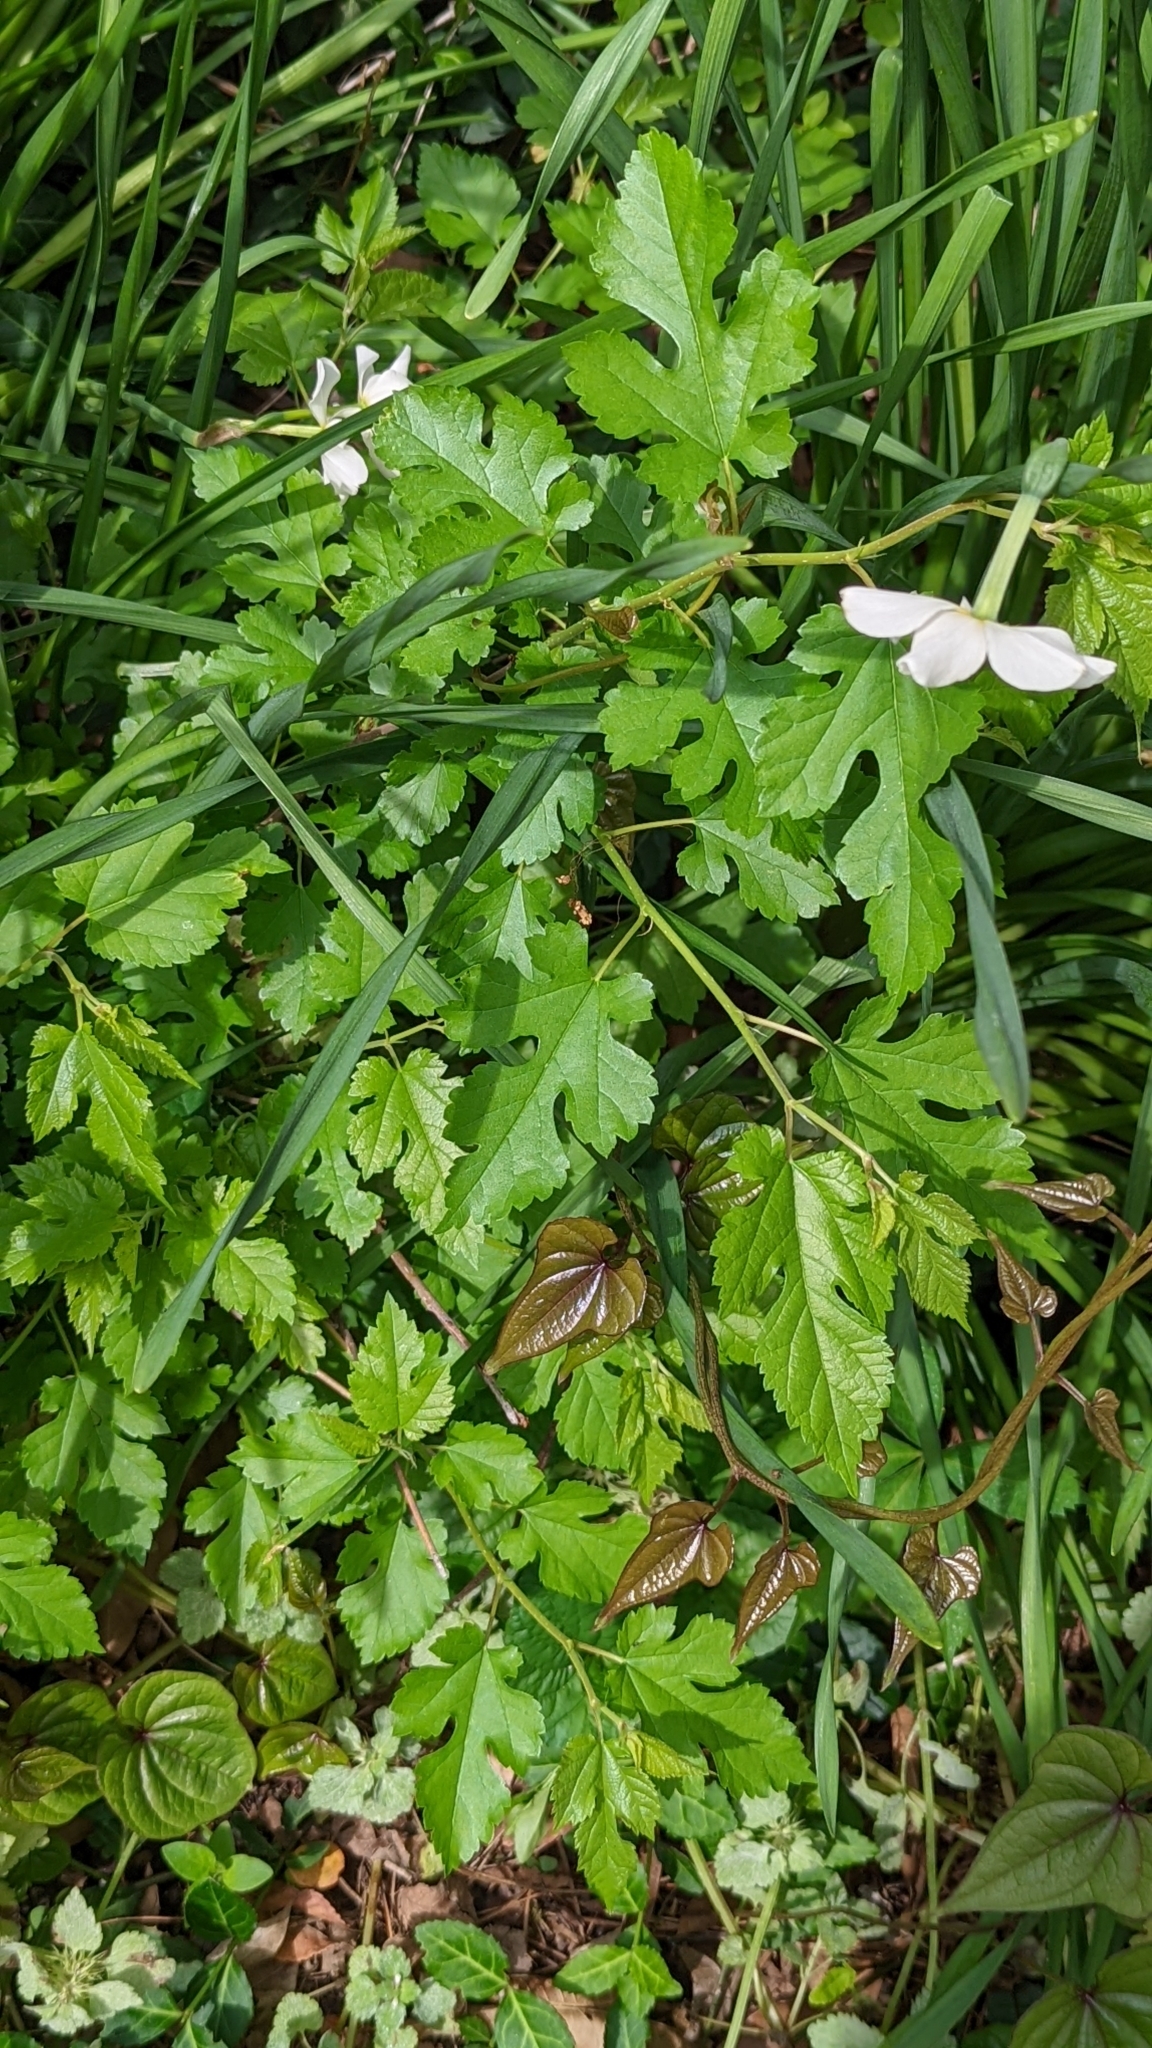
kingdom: Plantae
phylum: Tracheophyta
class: Magnoliopsida
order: Rosales
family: Moraceae
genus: Morus
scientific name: Morus alba
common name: White mulberry
